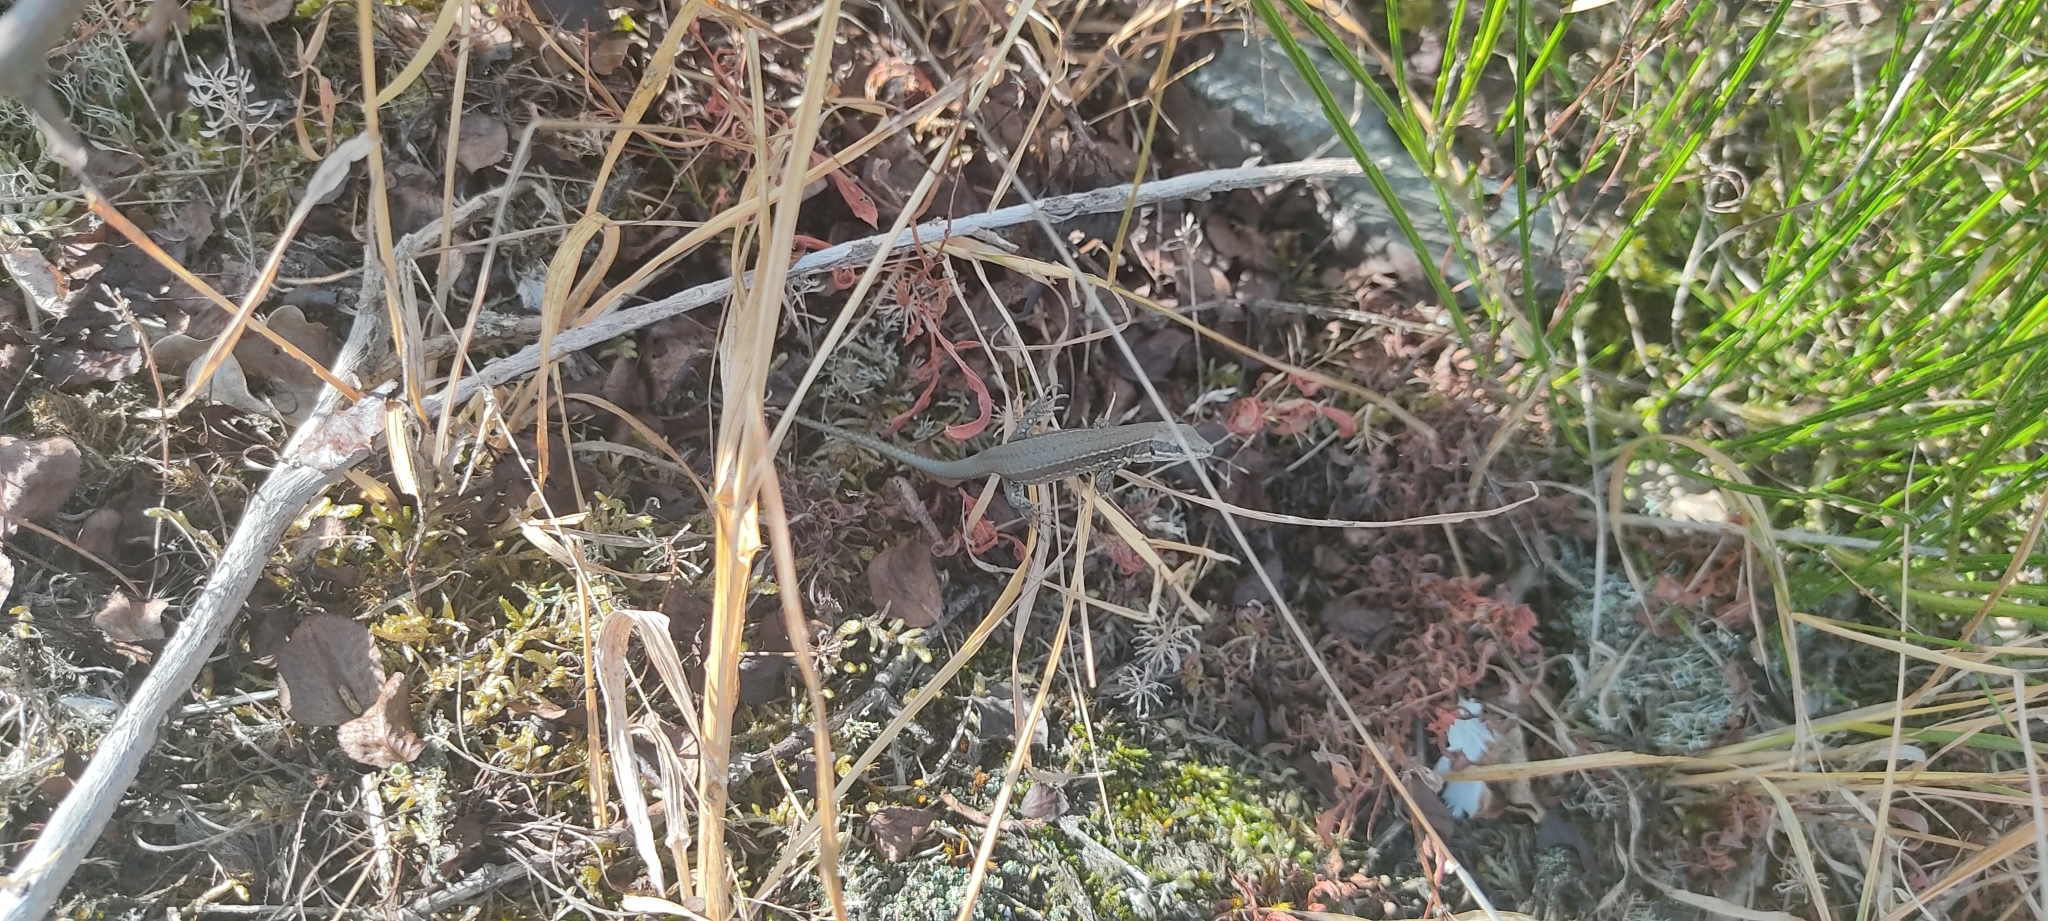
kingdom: Animalia
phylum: Chordata
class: Squamata
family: Lacertidae
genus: Podarcis
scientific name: Podarcis muralis
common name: Common wall lizard
